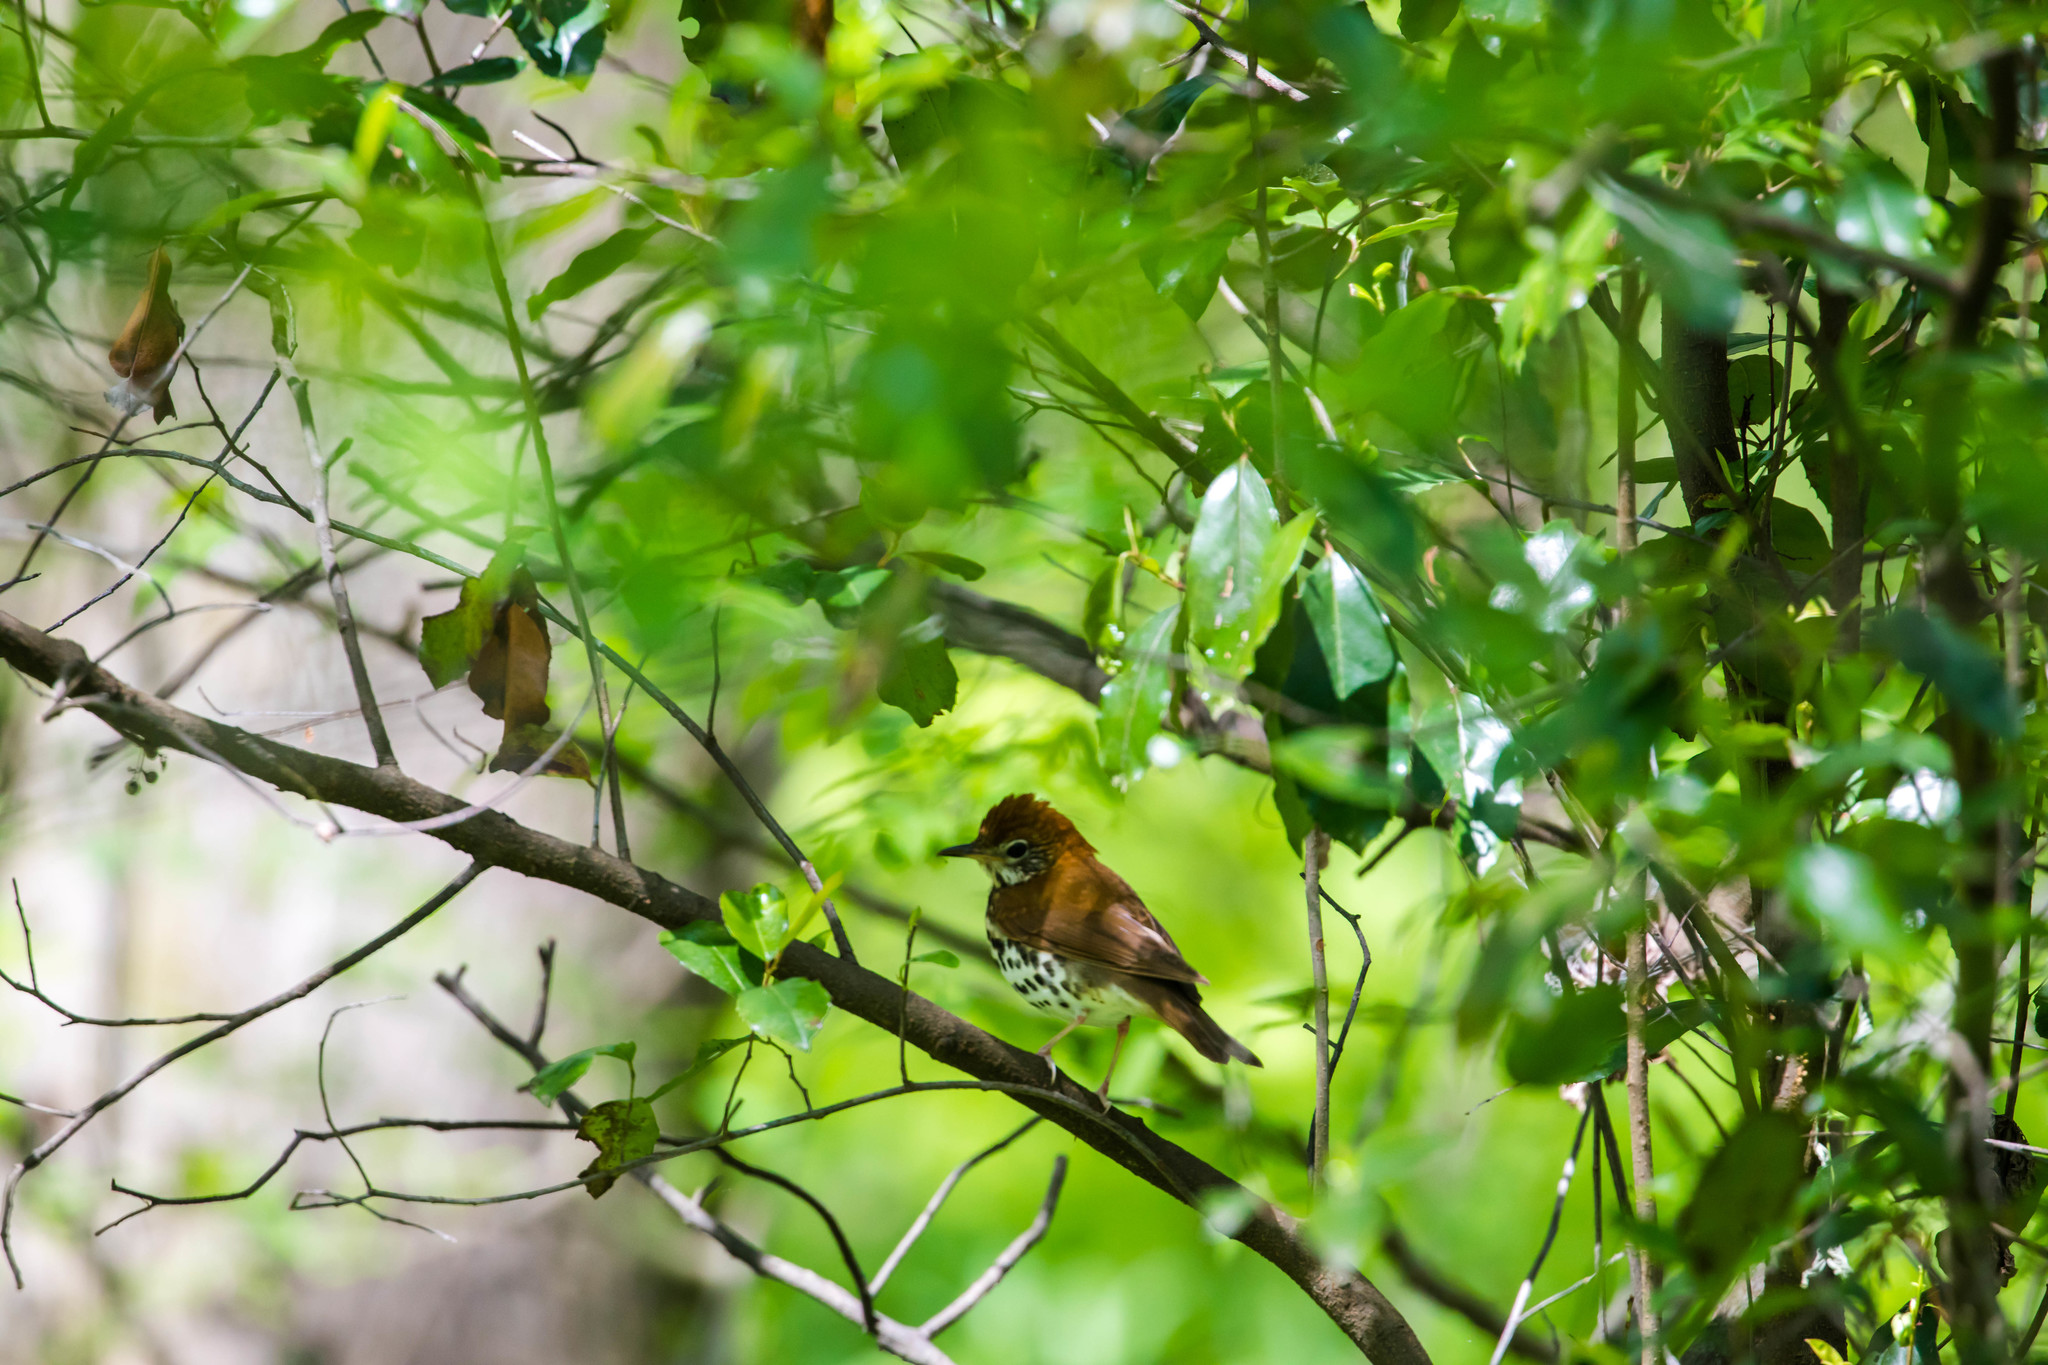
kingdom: Animalia
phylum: Chordata
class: Aves
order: Passeriformes
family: Turdidae
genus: Hylocichla
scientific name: Hylocichla mustelina
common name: Wood thrush
